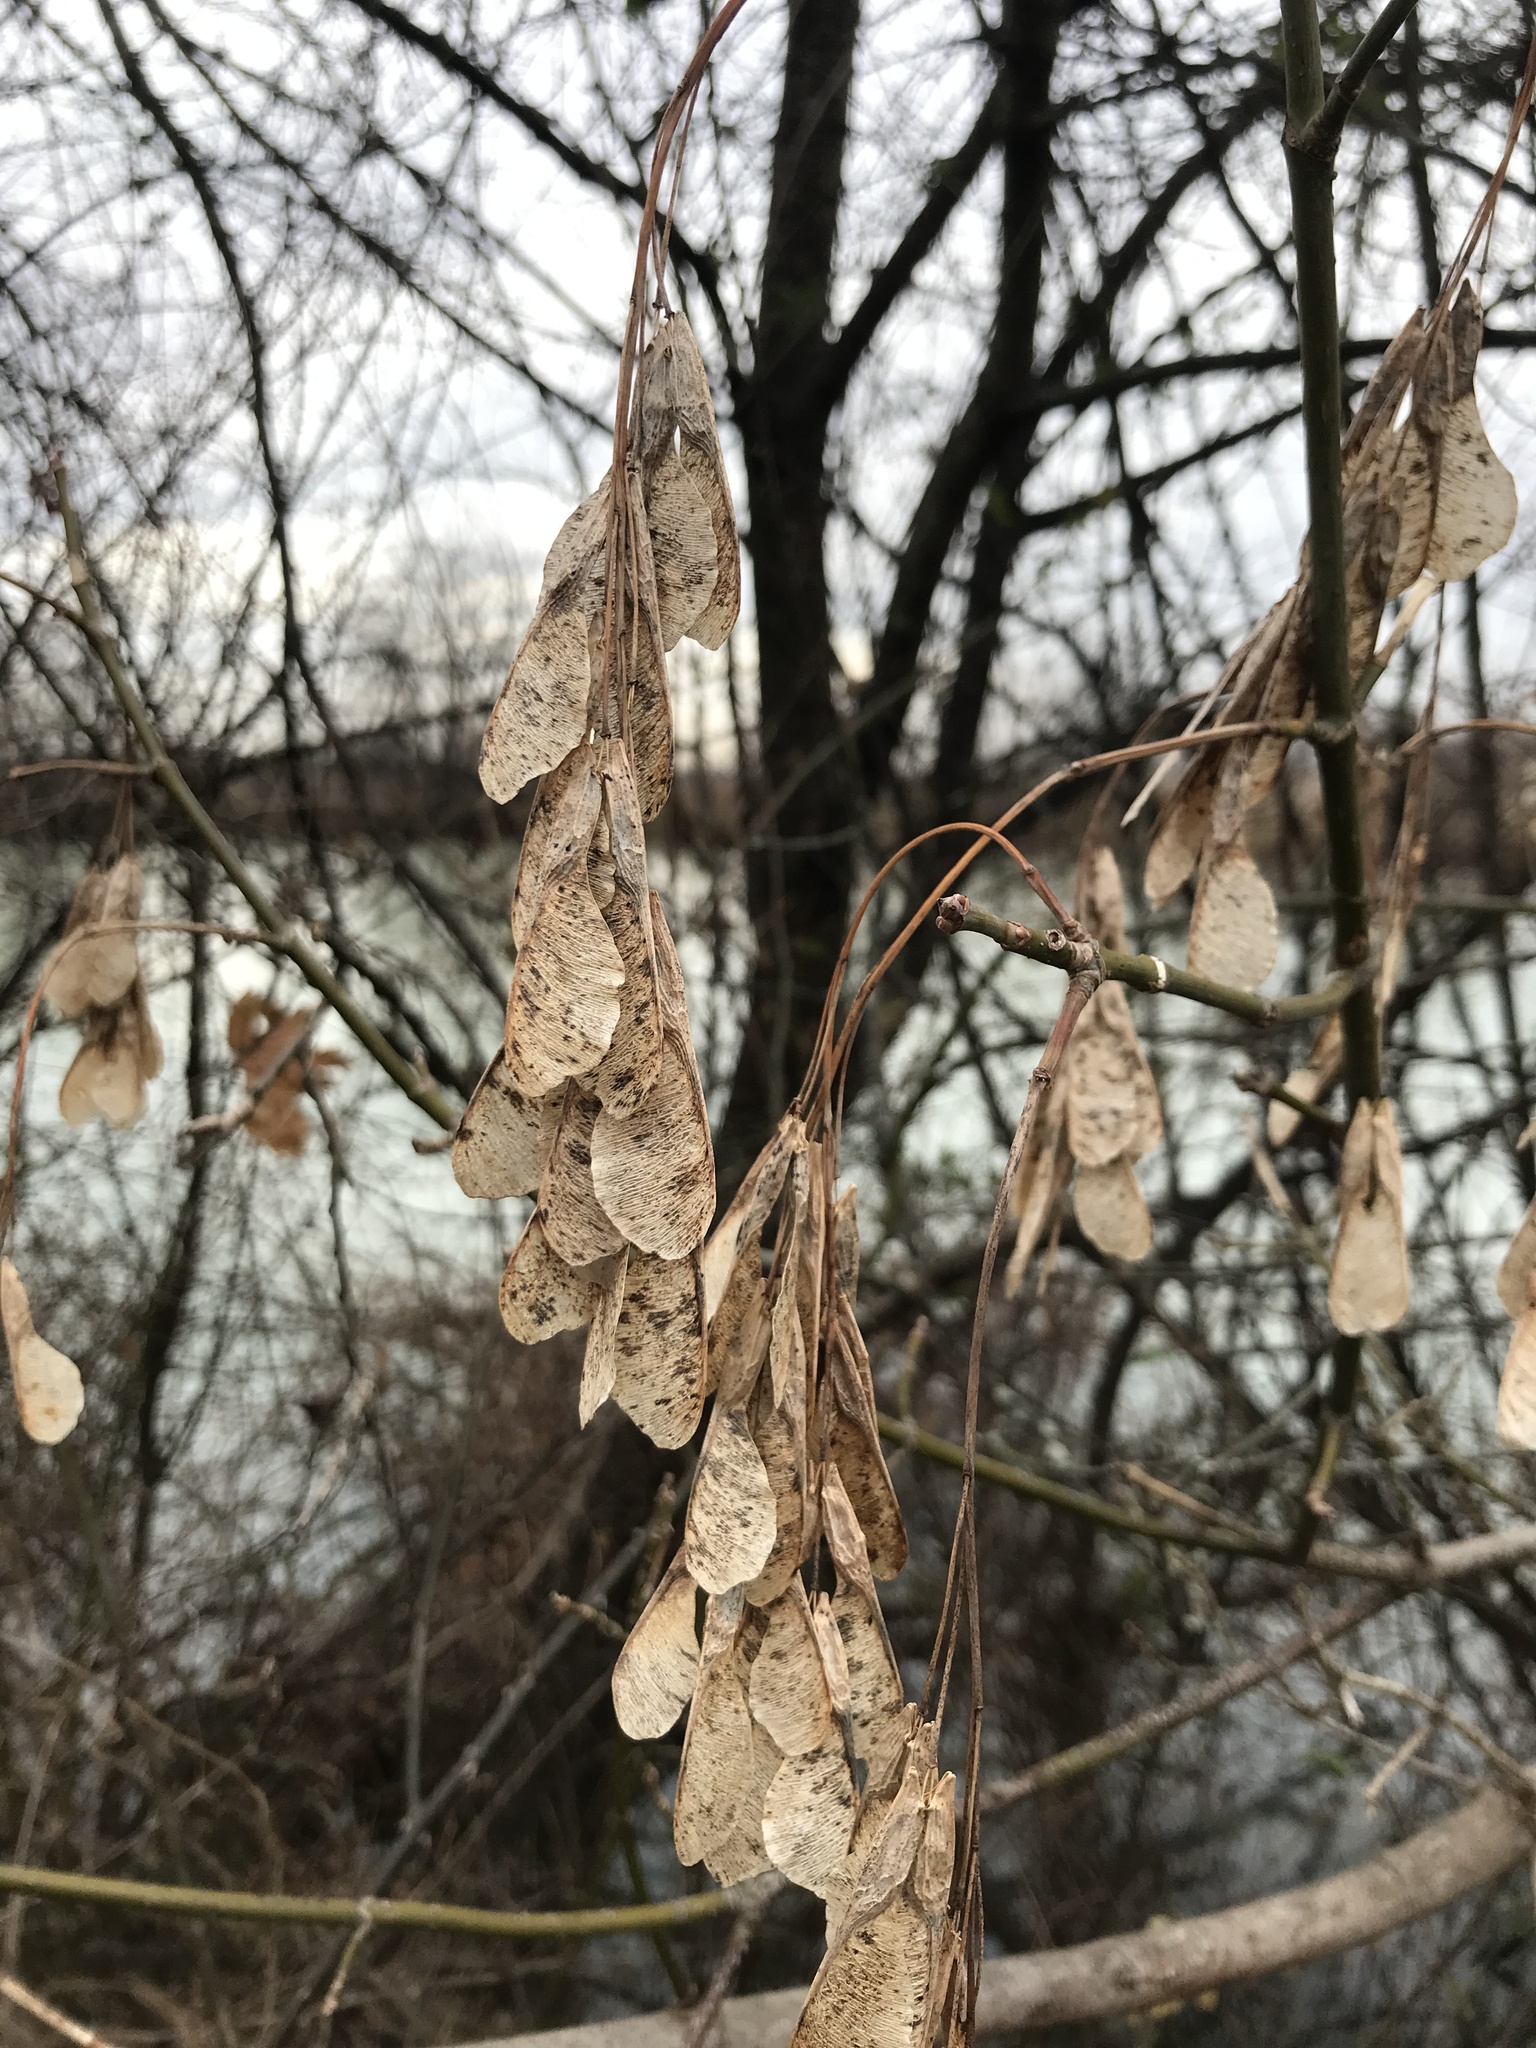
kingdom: Plantae
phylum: Tracheophyta
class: Magnoliopsida
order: Sapindales
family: Sapindaceae
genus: Acer
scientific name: Acer negundo
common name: Ashleaf maple
